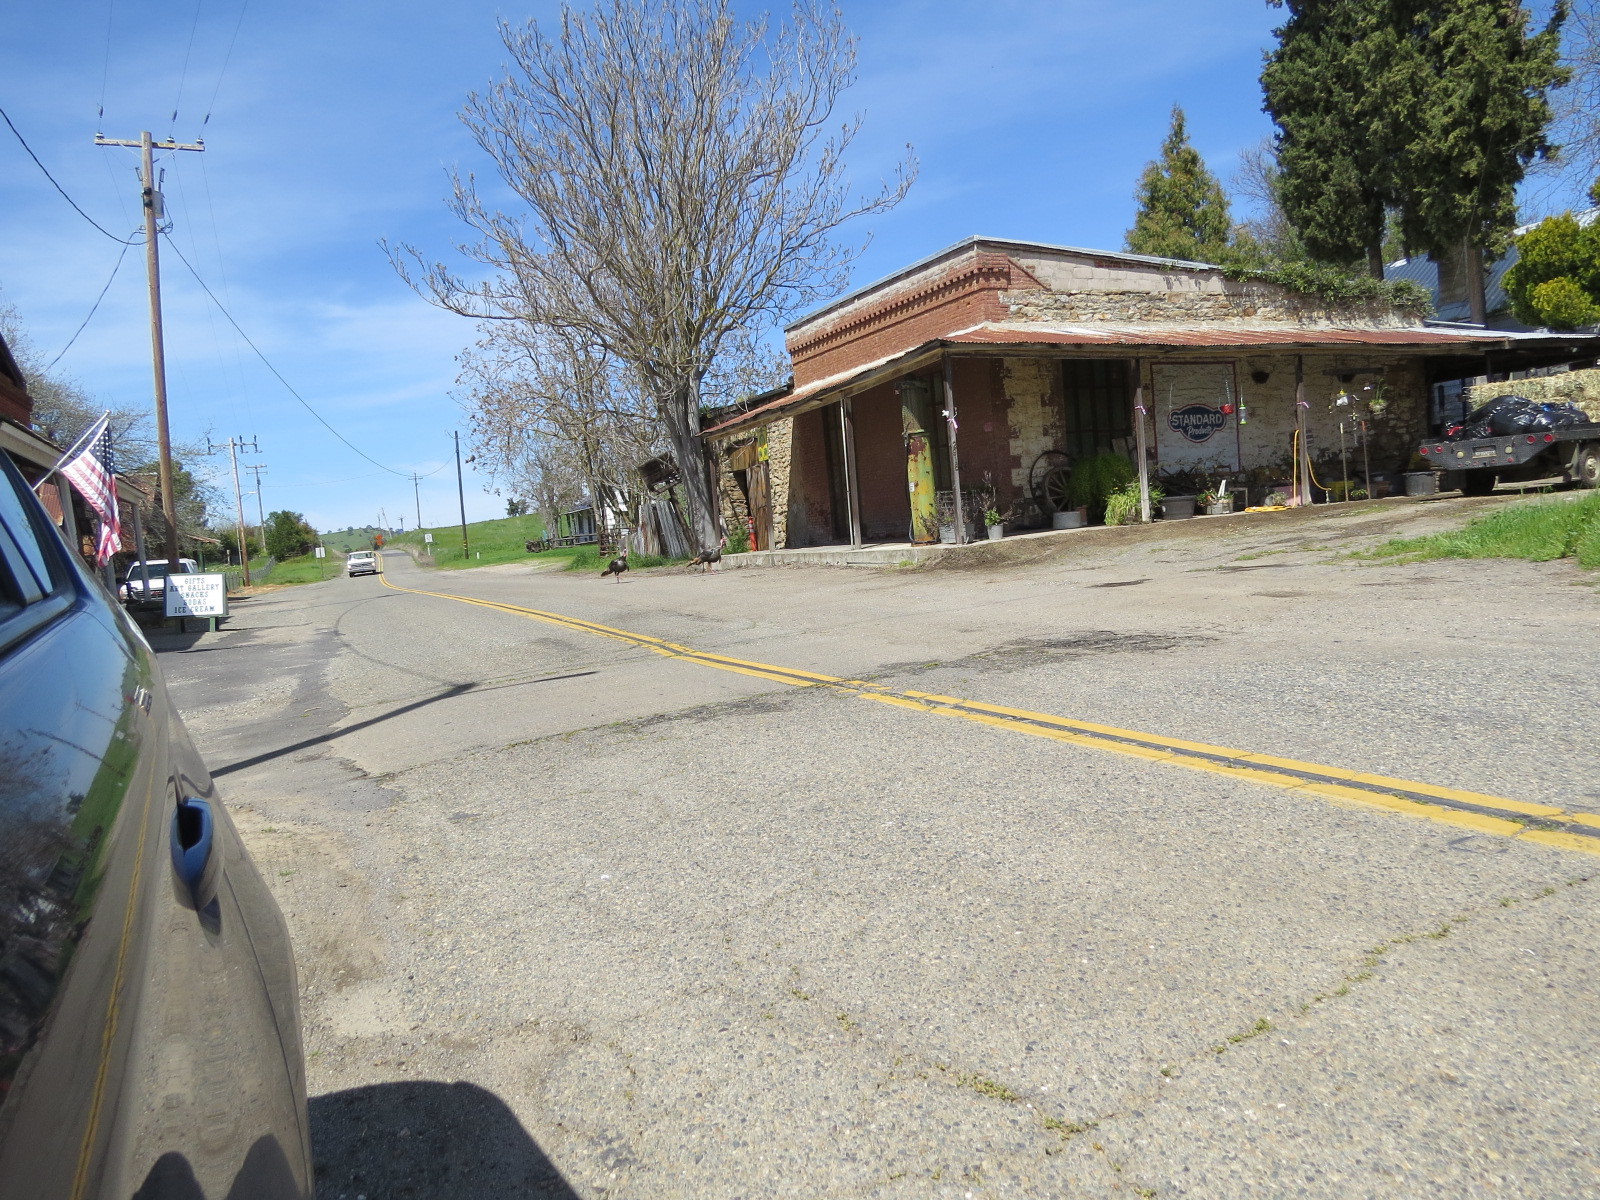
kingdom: Animalia
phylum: Chordata
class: Aves
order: Galliformes
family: Phasianidae
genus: Meleagris
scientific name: Meleagris gallopavo
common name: Wild turkey
